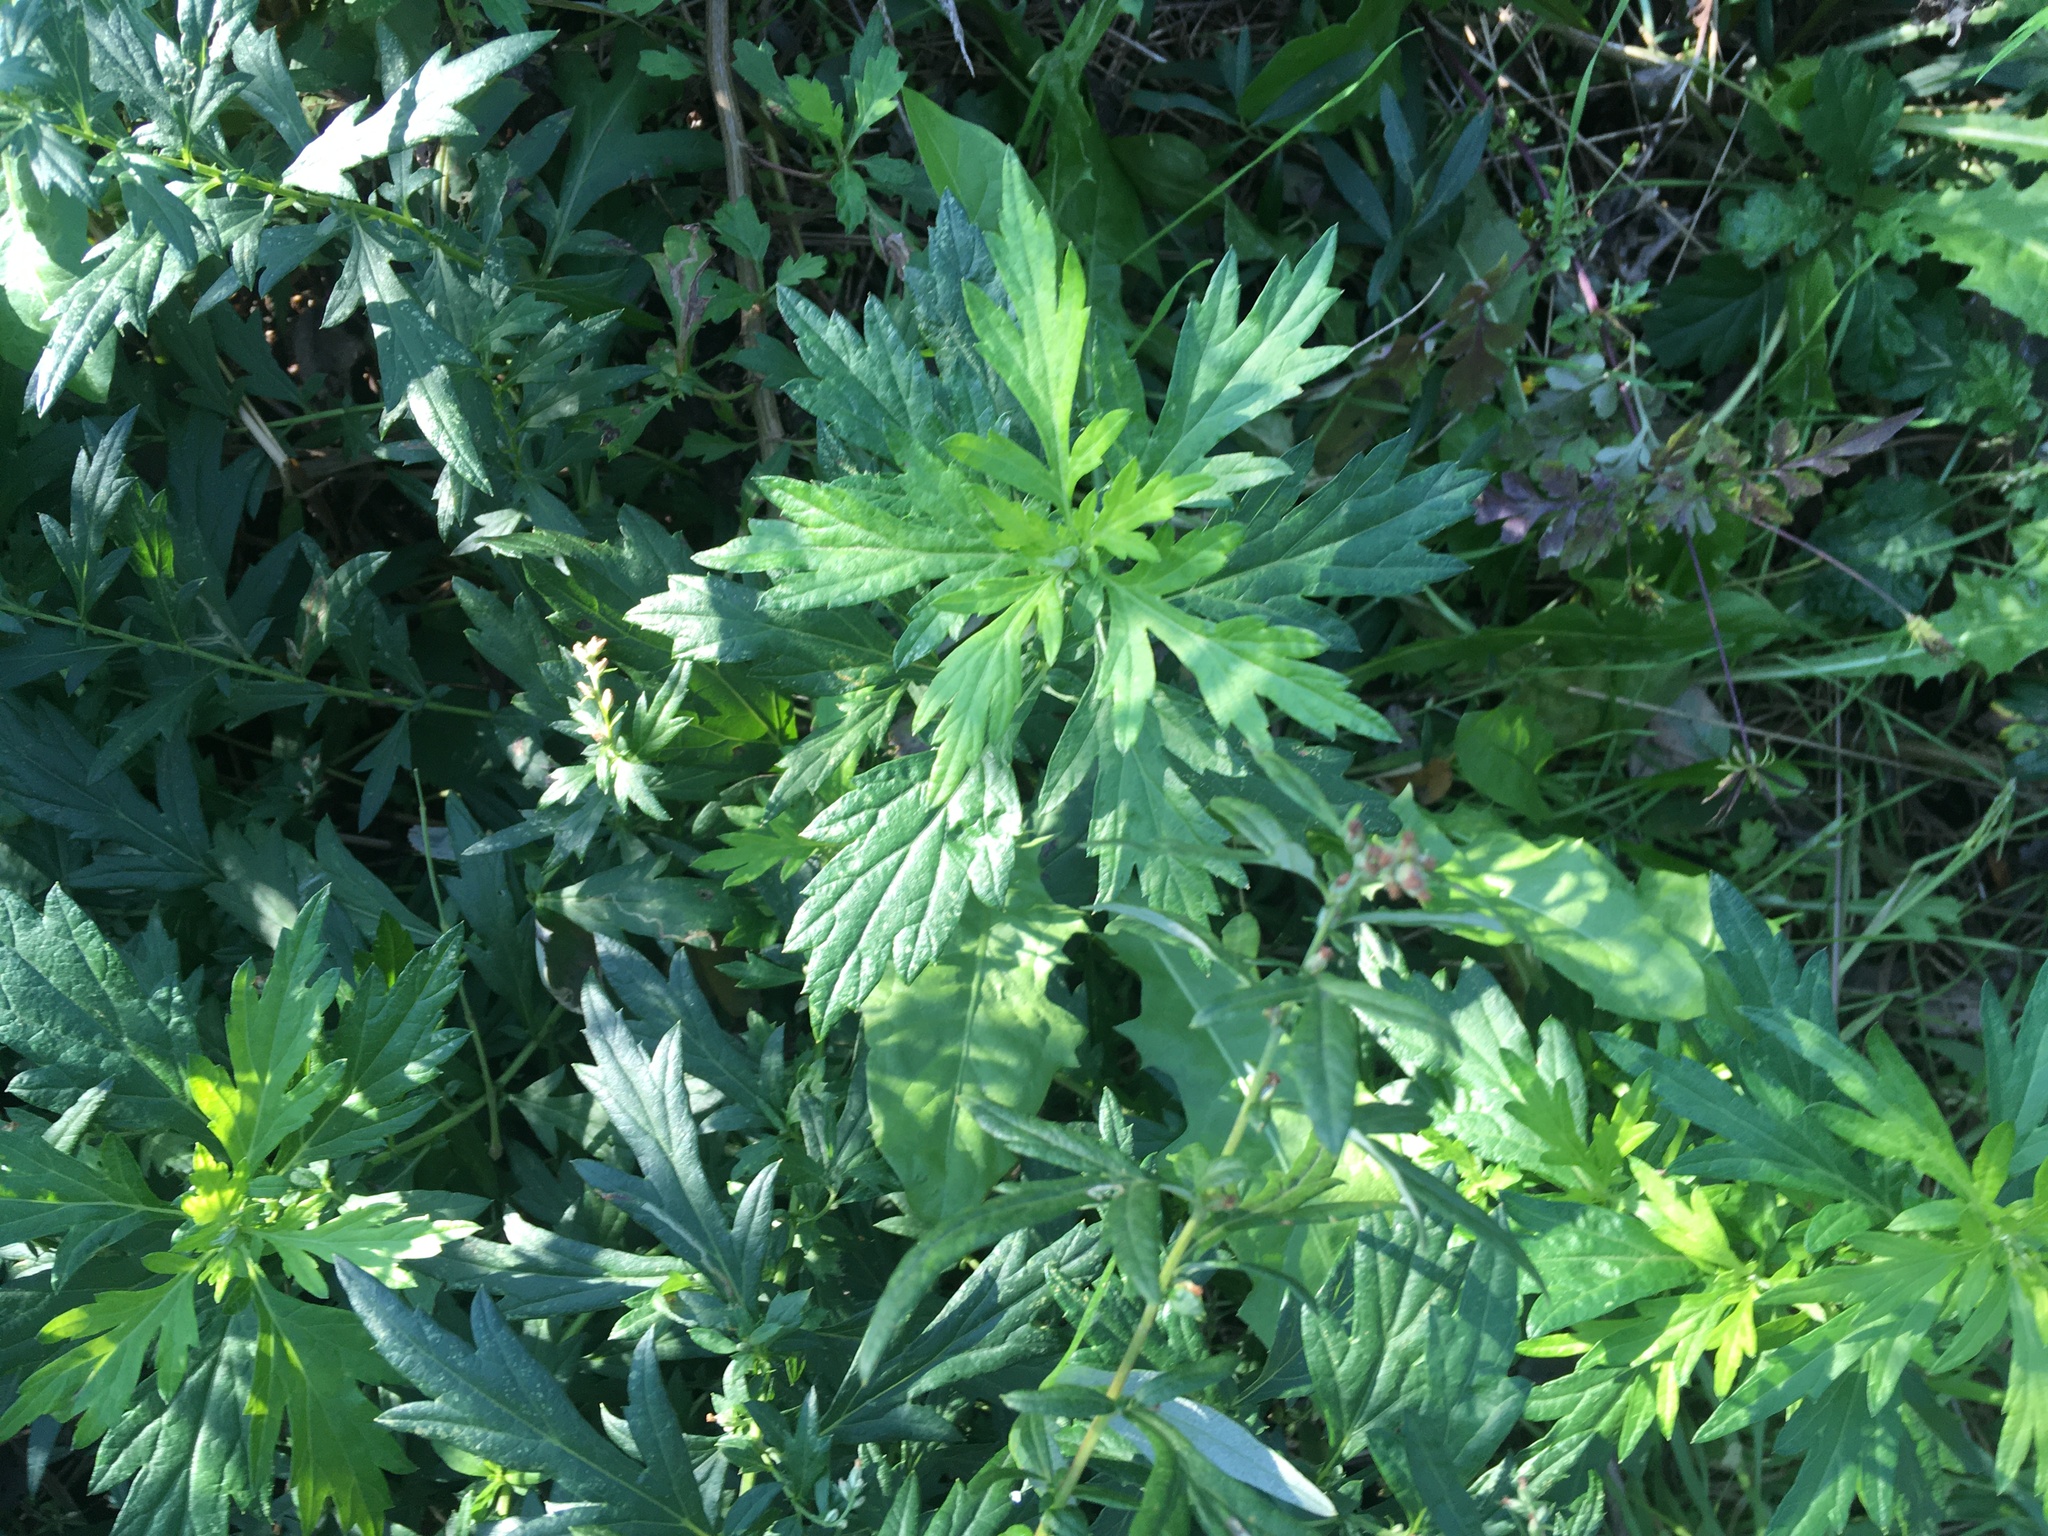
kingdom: Plantae
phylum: Tracheophyta
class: Magnoliopsida
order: Asterales
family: Asteraceae
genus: Artemisia
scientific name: Artemisia vulgaris
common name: Mugwort
